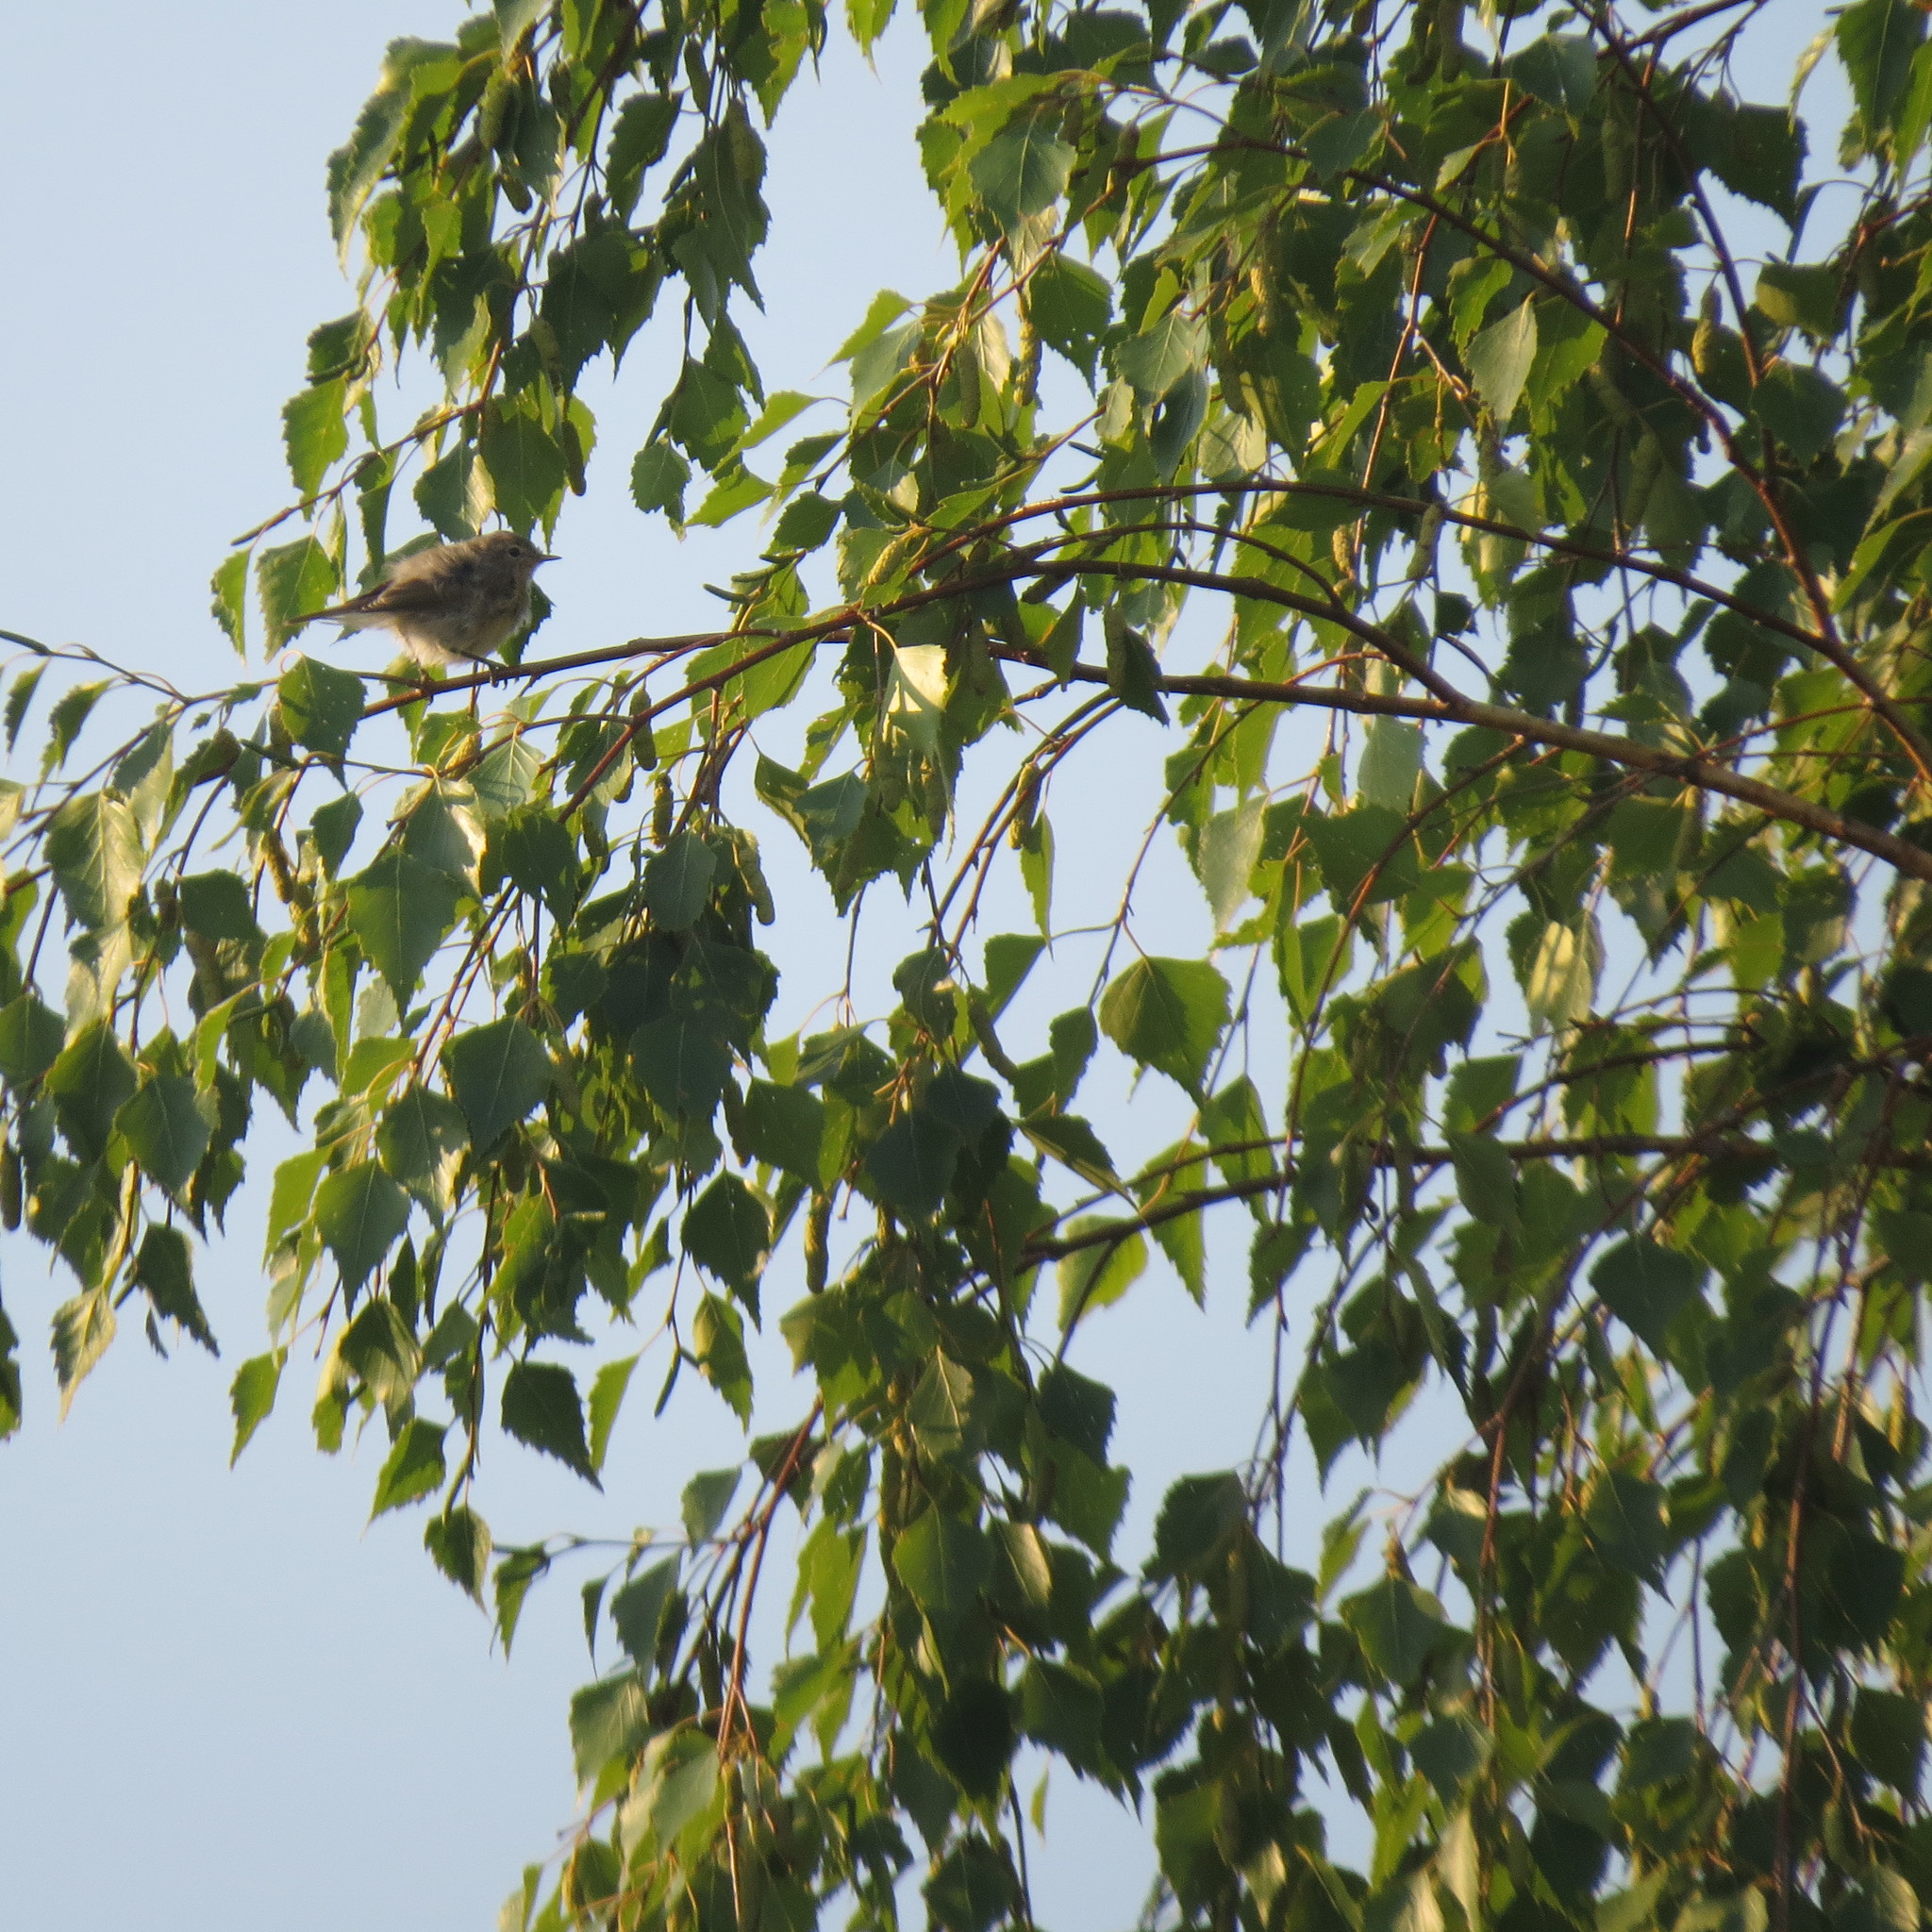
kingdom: Animalia
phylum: Chordata
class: Aves
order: Passeriformes
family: Phylloscopidae
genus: Phylloscopus
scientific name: Phylloscopus trochilus
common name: Willow warbler
